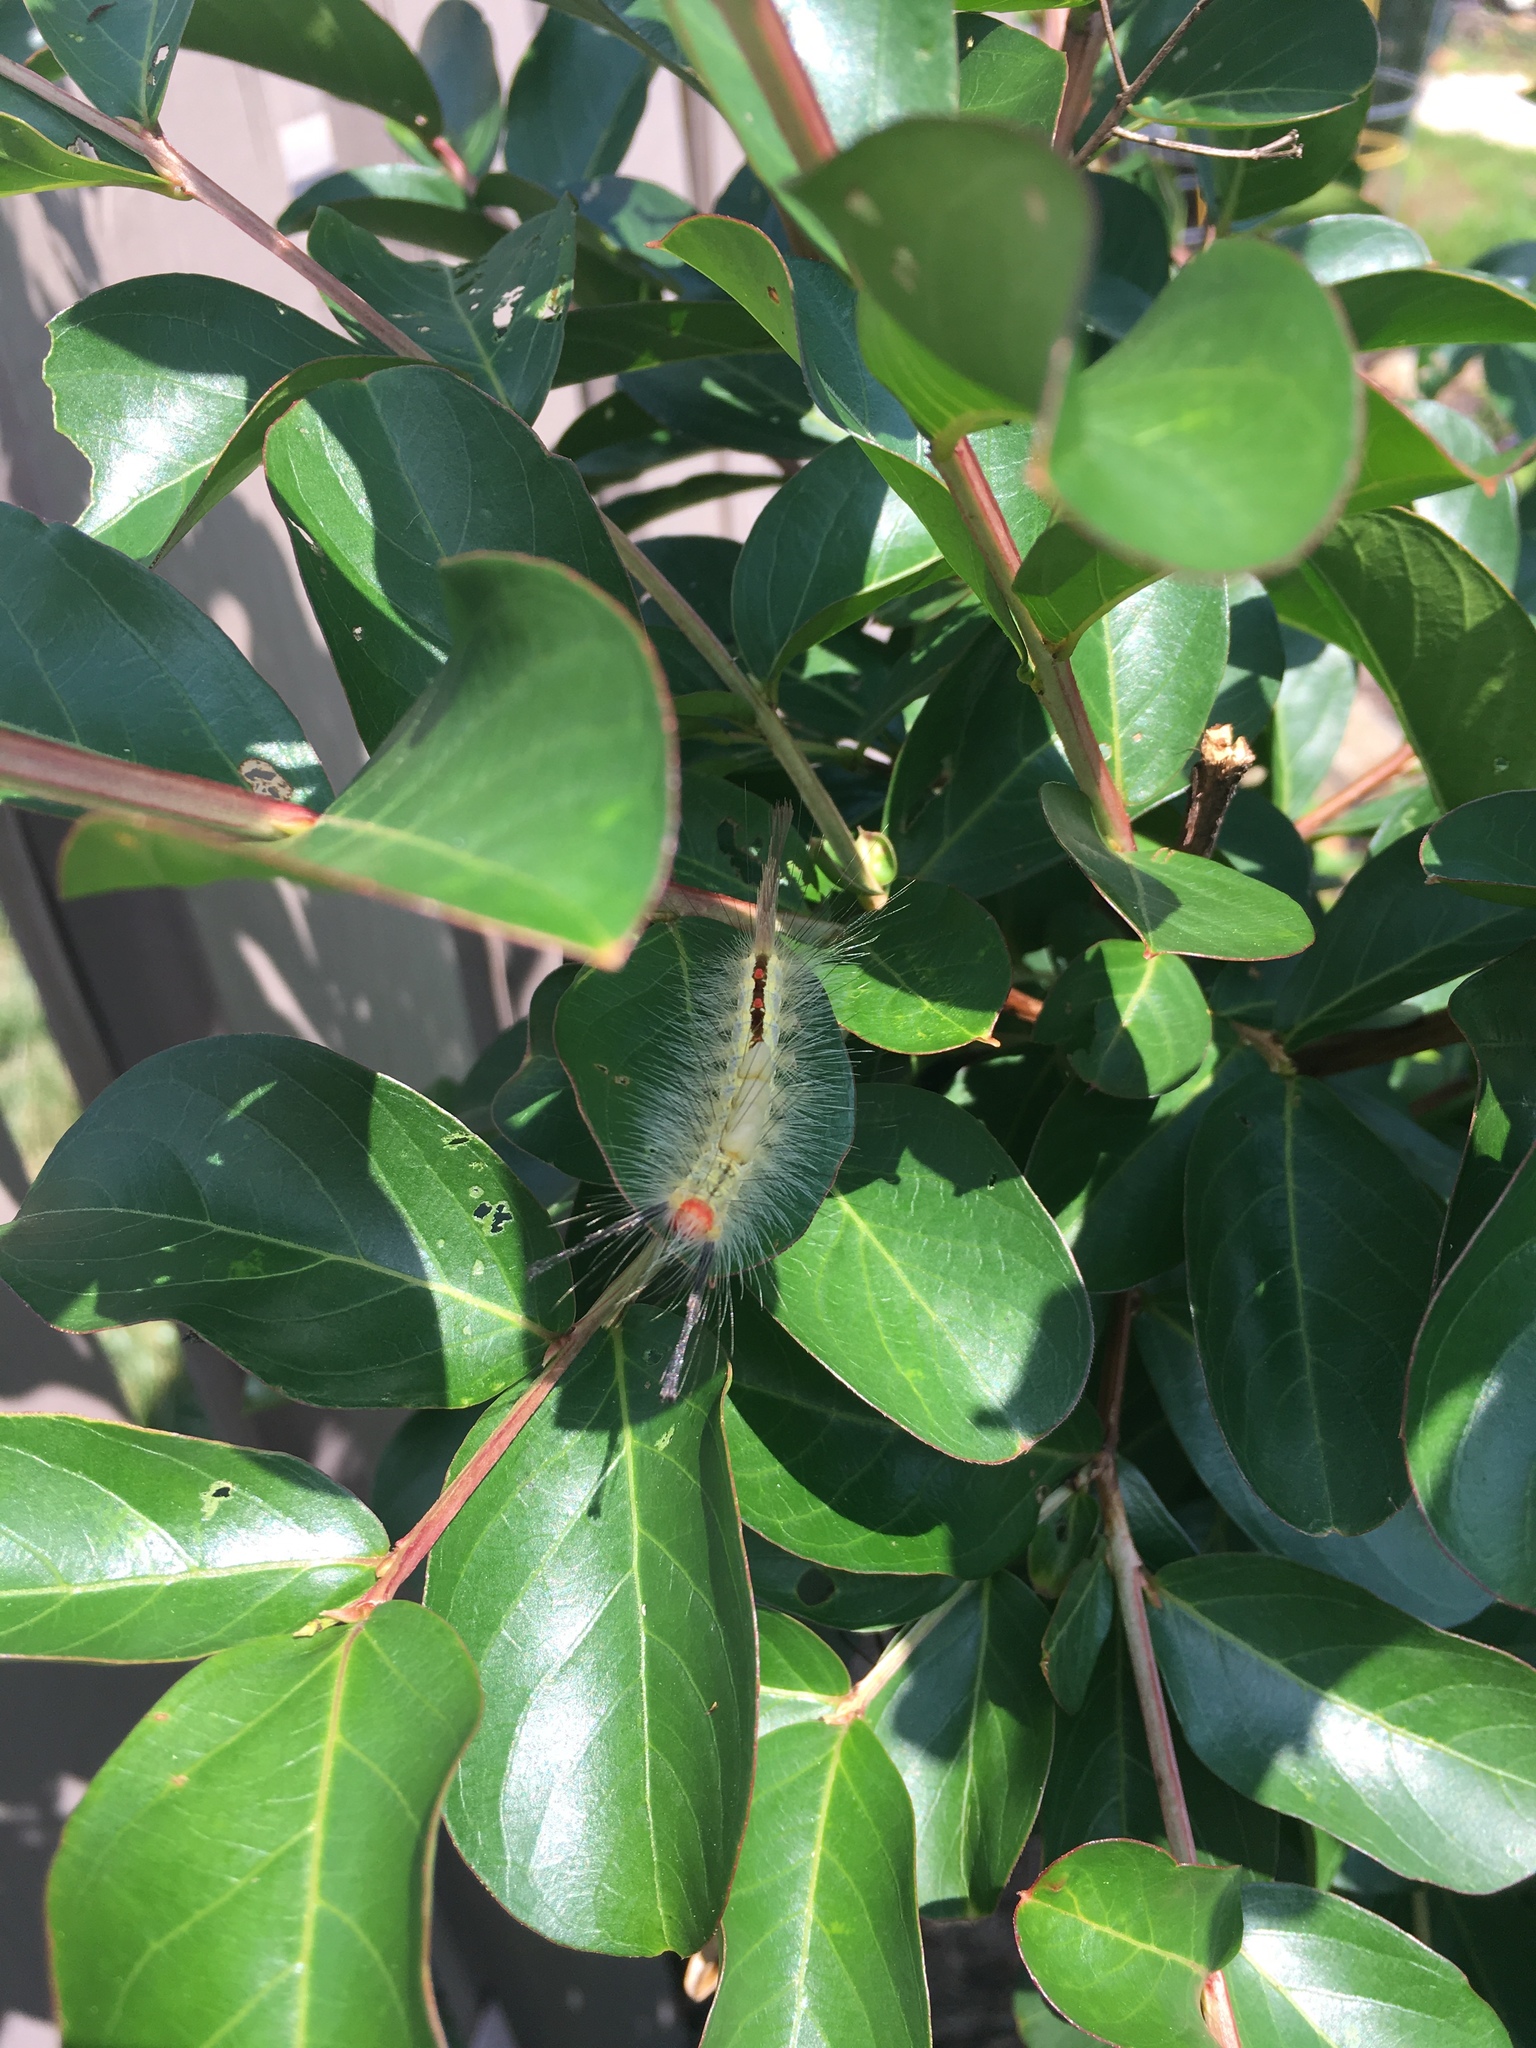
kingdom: Animalia
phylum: Arthropoda
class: Insecta
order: Lepidoptera
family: Erebidae
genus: Orgyia
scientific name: Orgyia leucostigma
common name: White-marked tussock moth
